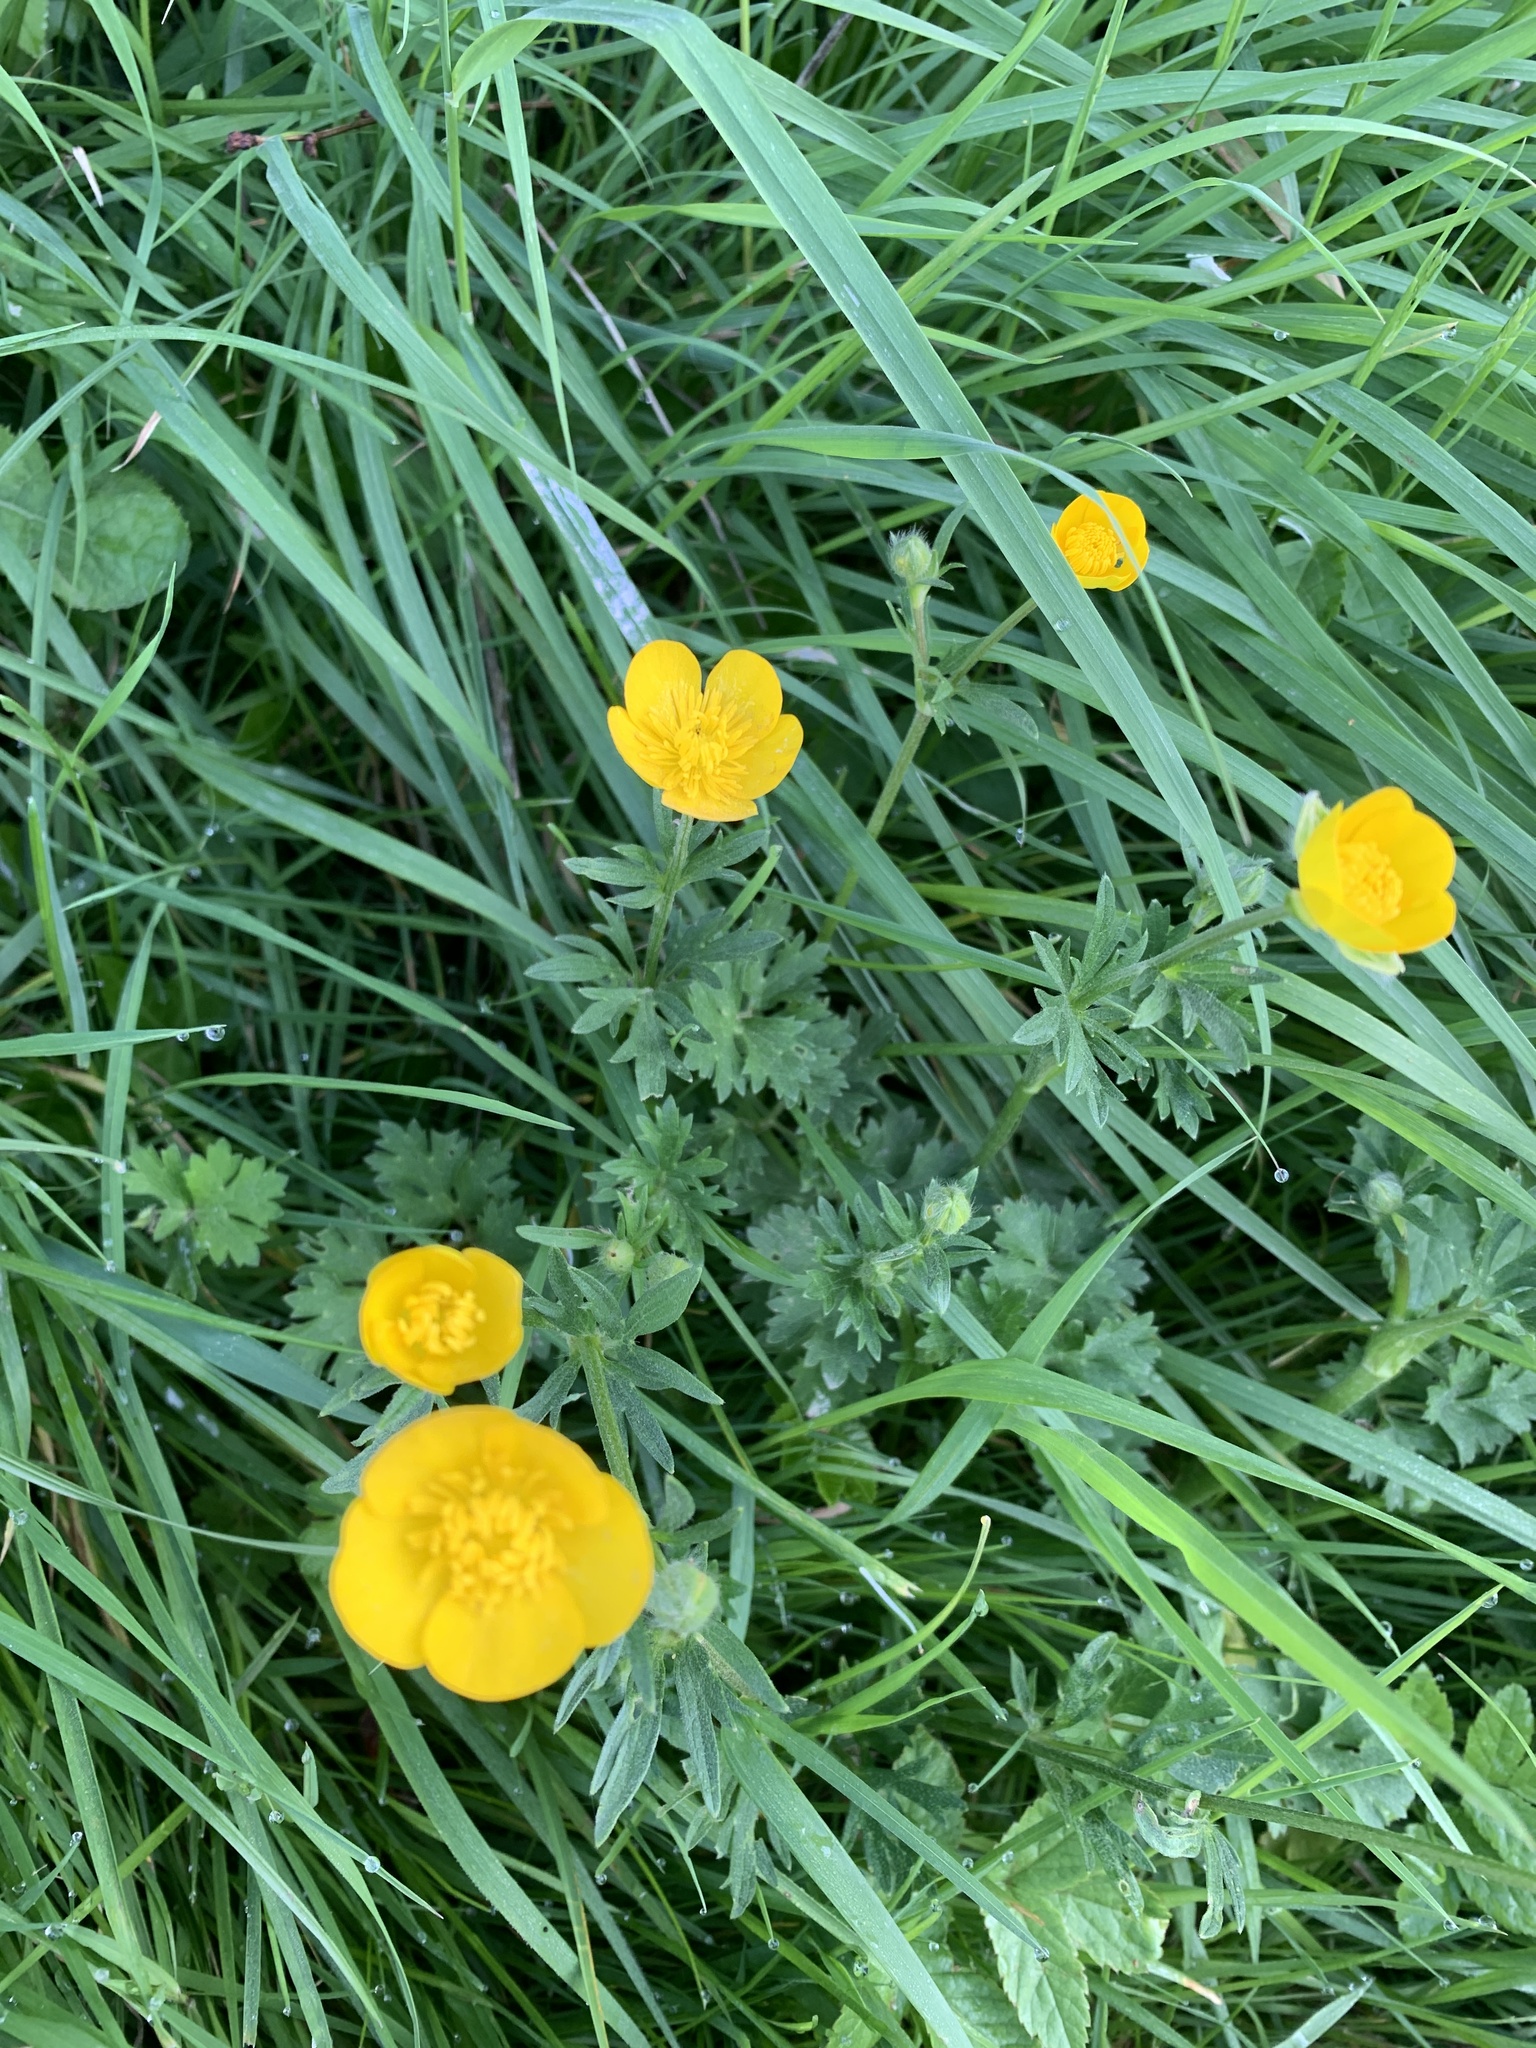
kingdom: Plantae
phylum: Tracheophyta
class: Magnoliopsida
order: Ranunculales
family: Ranunculaceae
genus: Ranunculus
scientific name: Ranunculus acris
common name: Meadow buttercup
